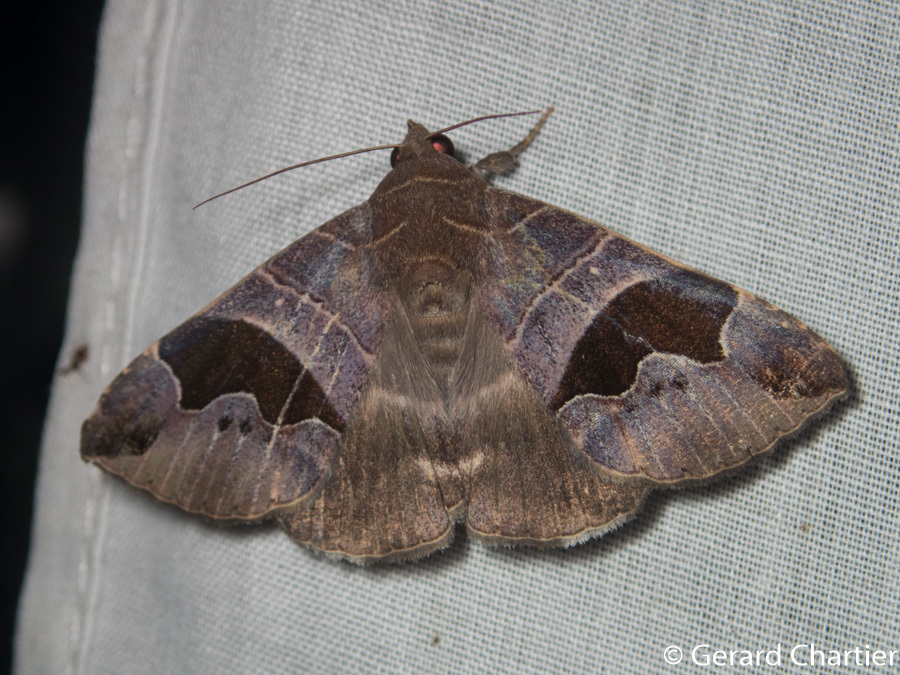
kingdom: Animalia
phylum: Arthropoda
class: Insecta
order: Lepidoptera
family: Erebidae
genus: Bastilla
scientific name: Bastilla joviana
